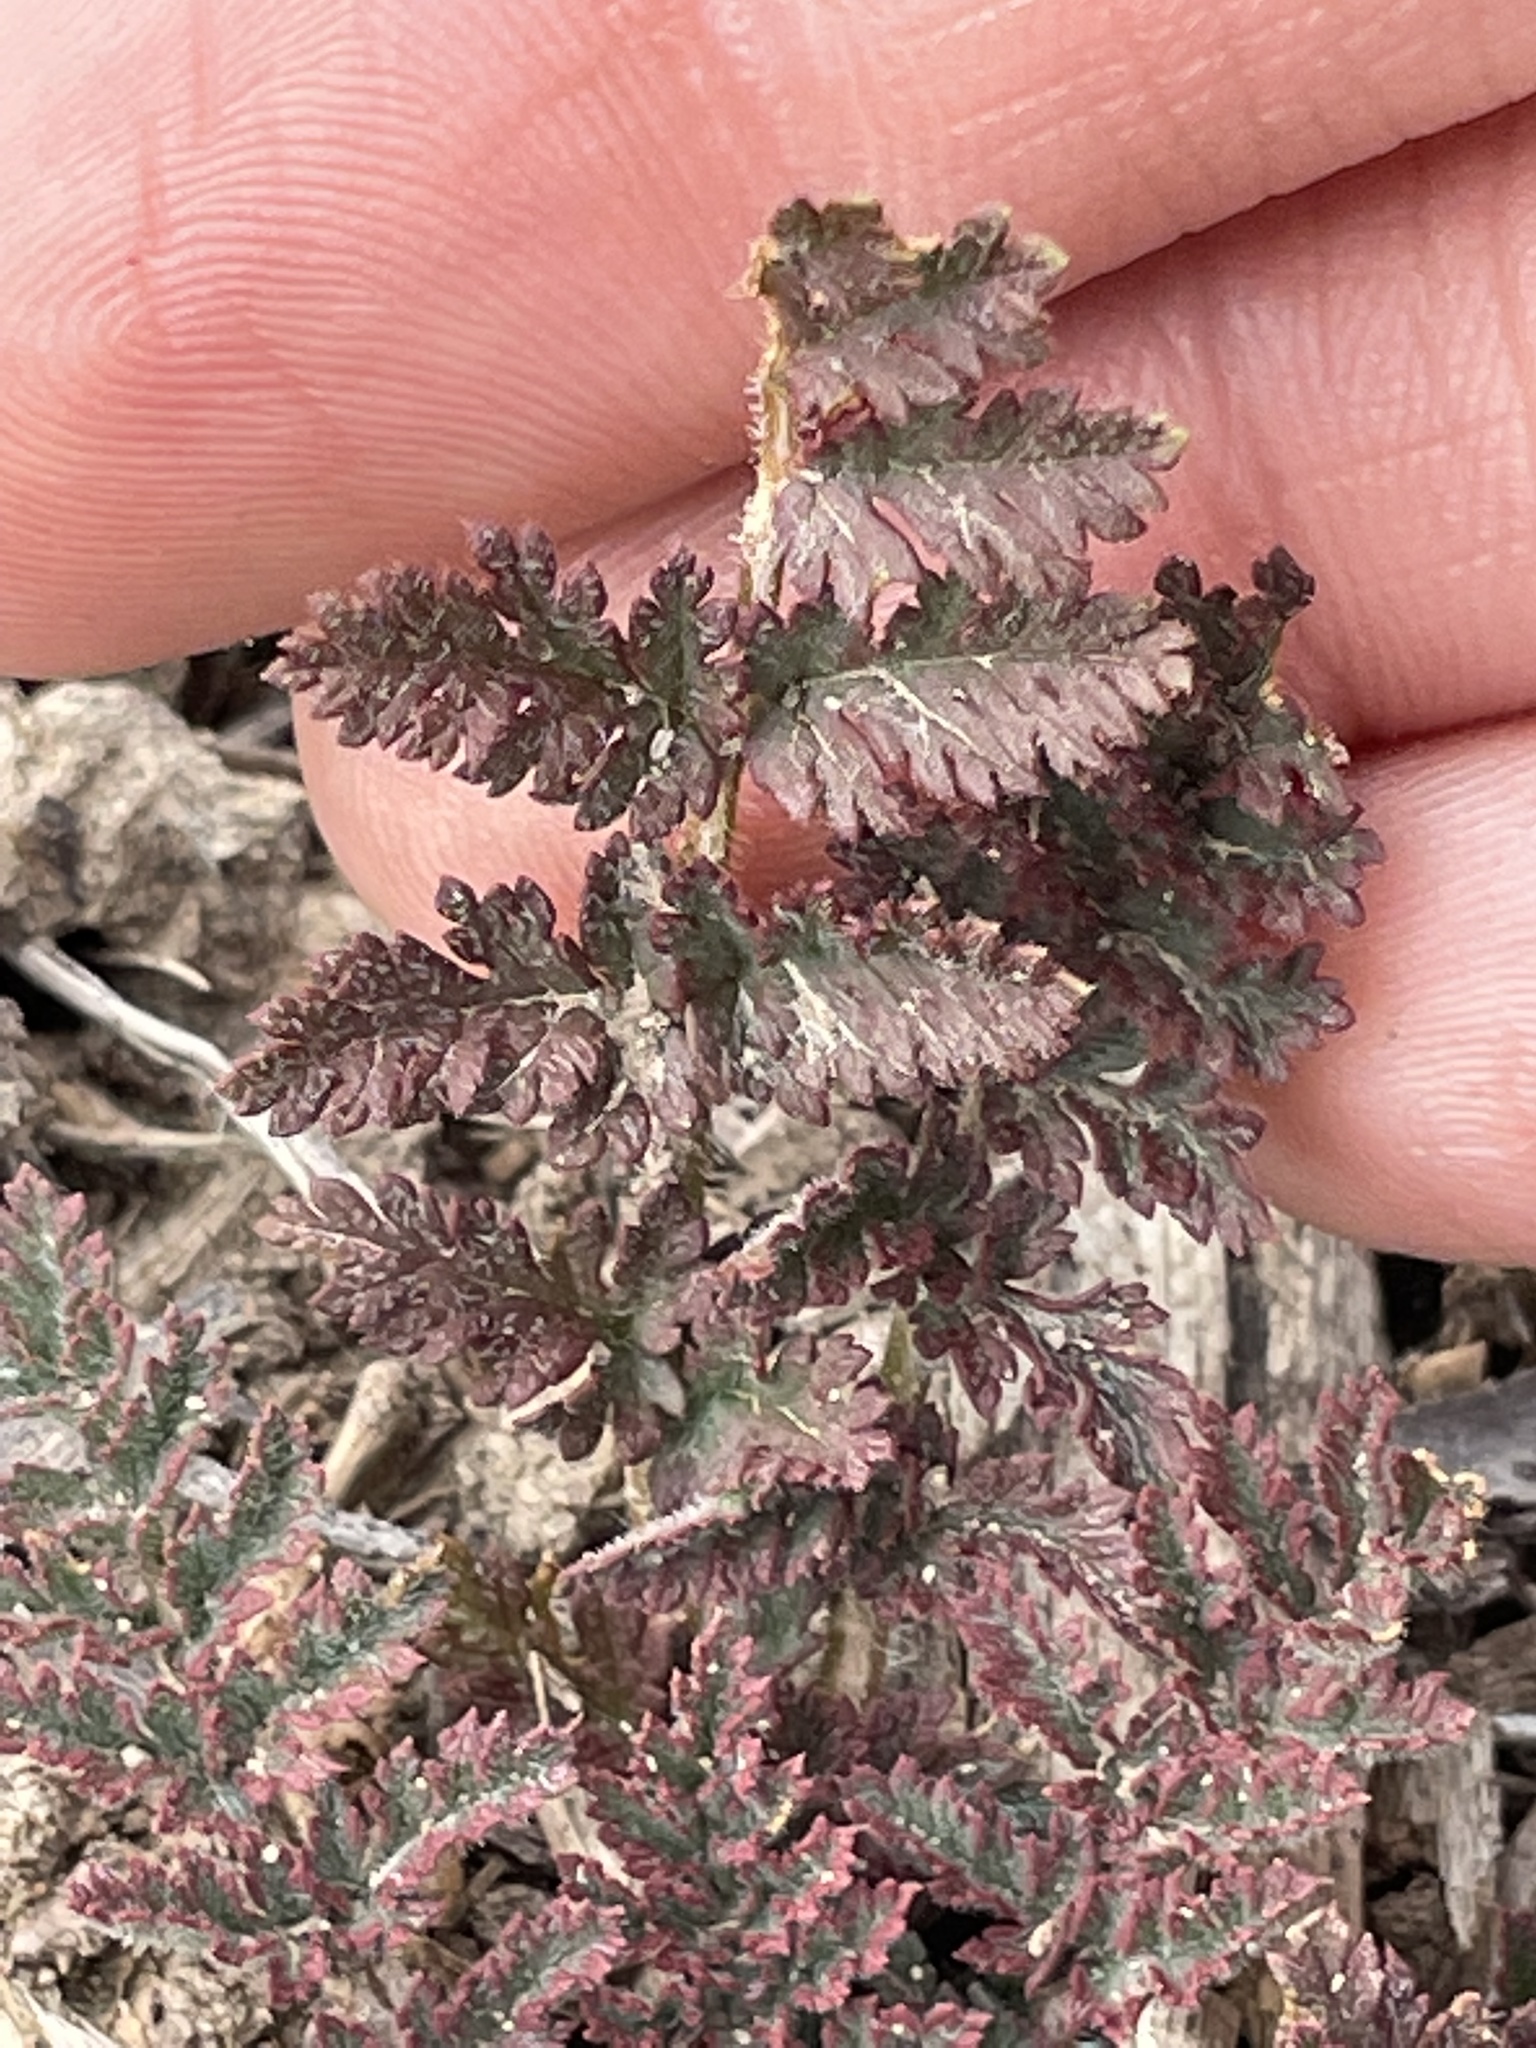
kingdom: Plantae
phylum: Tracheophyta
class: Magnoliopsida
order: Geraniales
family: Geraniaceae
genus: Erodium
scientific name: Erodium cicutarium
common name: Common stork's-bill
